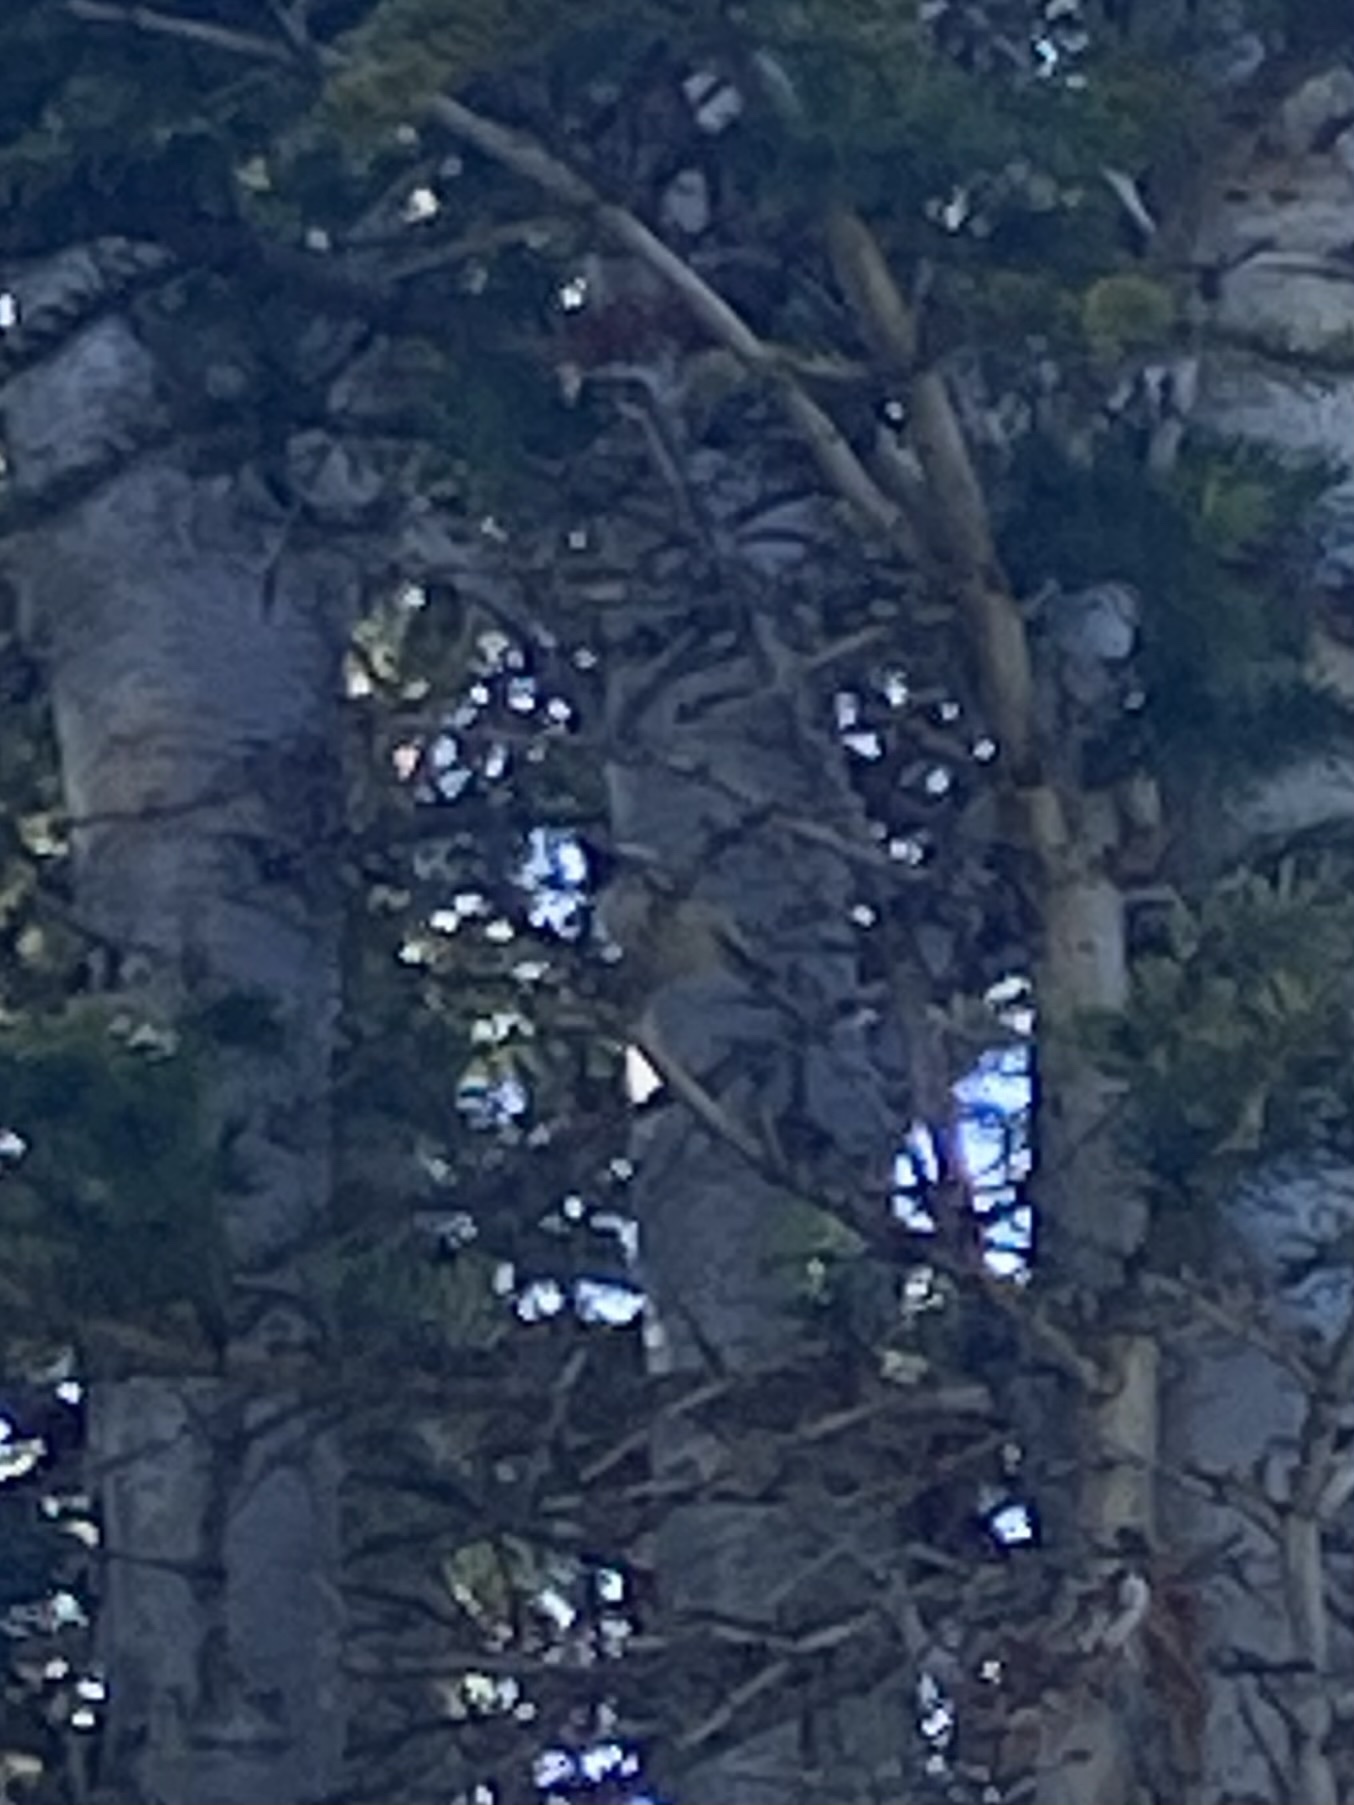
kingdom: Animalia
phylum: Chordata
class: Aves
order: Passeriformes
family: Paridae
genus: Poecile
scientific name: Poecile gambeli
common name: Mountain chickadee
